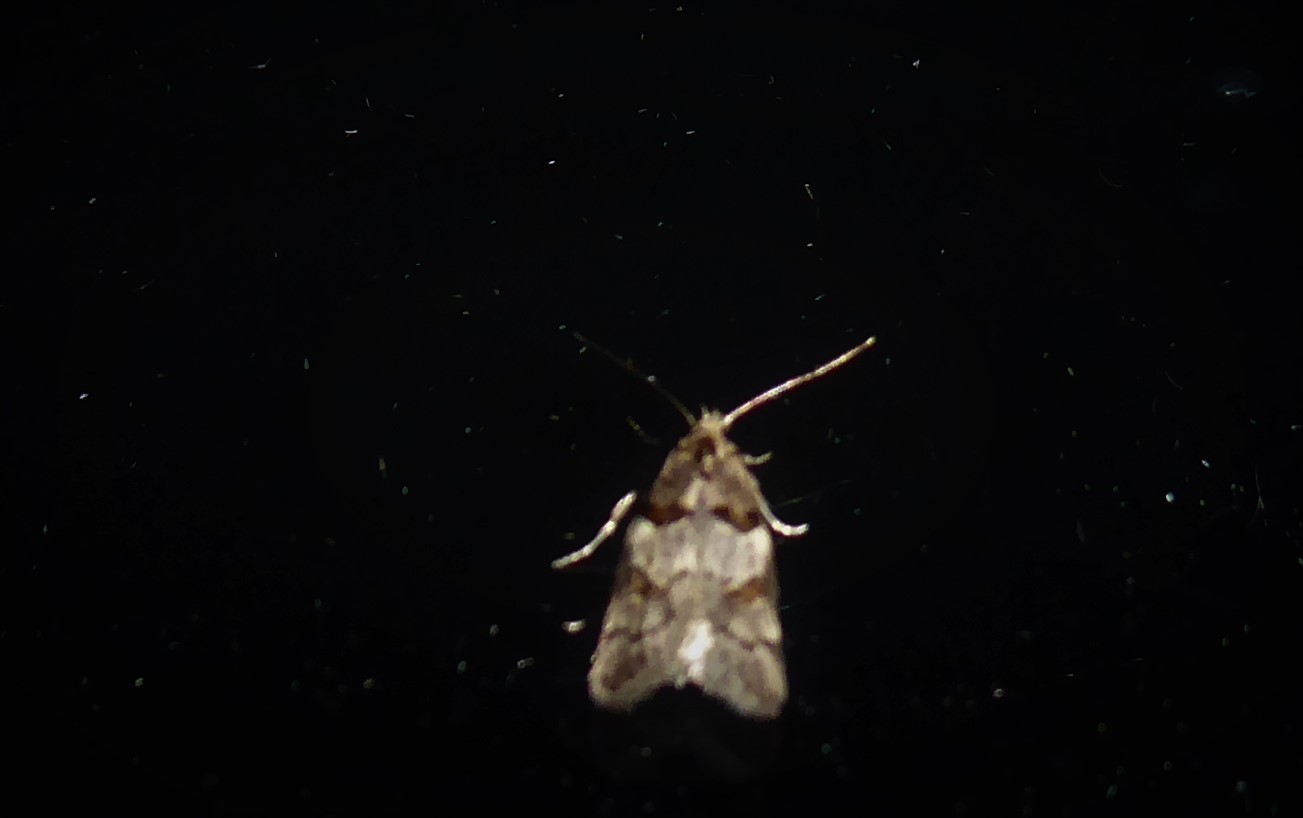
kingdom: Animalia
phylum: Arthropoda
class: Insecta
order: Lepidoptera
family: Oecophoridae
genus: Trachypepla
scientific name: Trachypepla contritella
